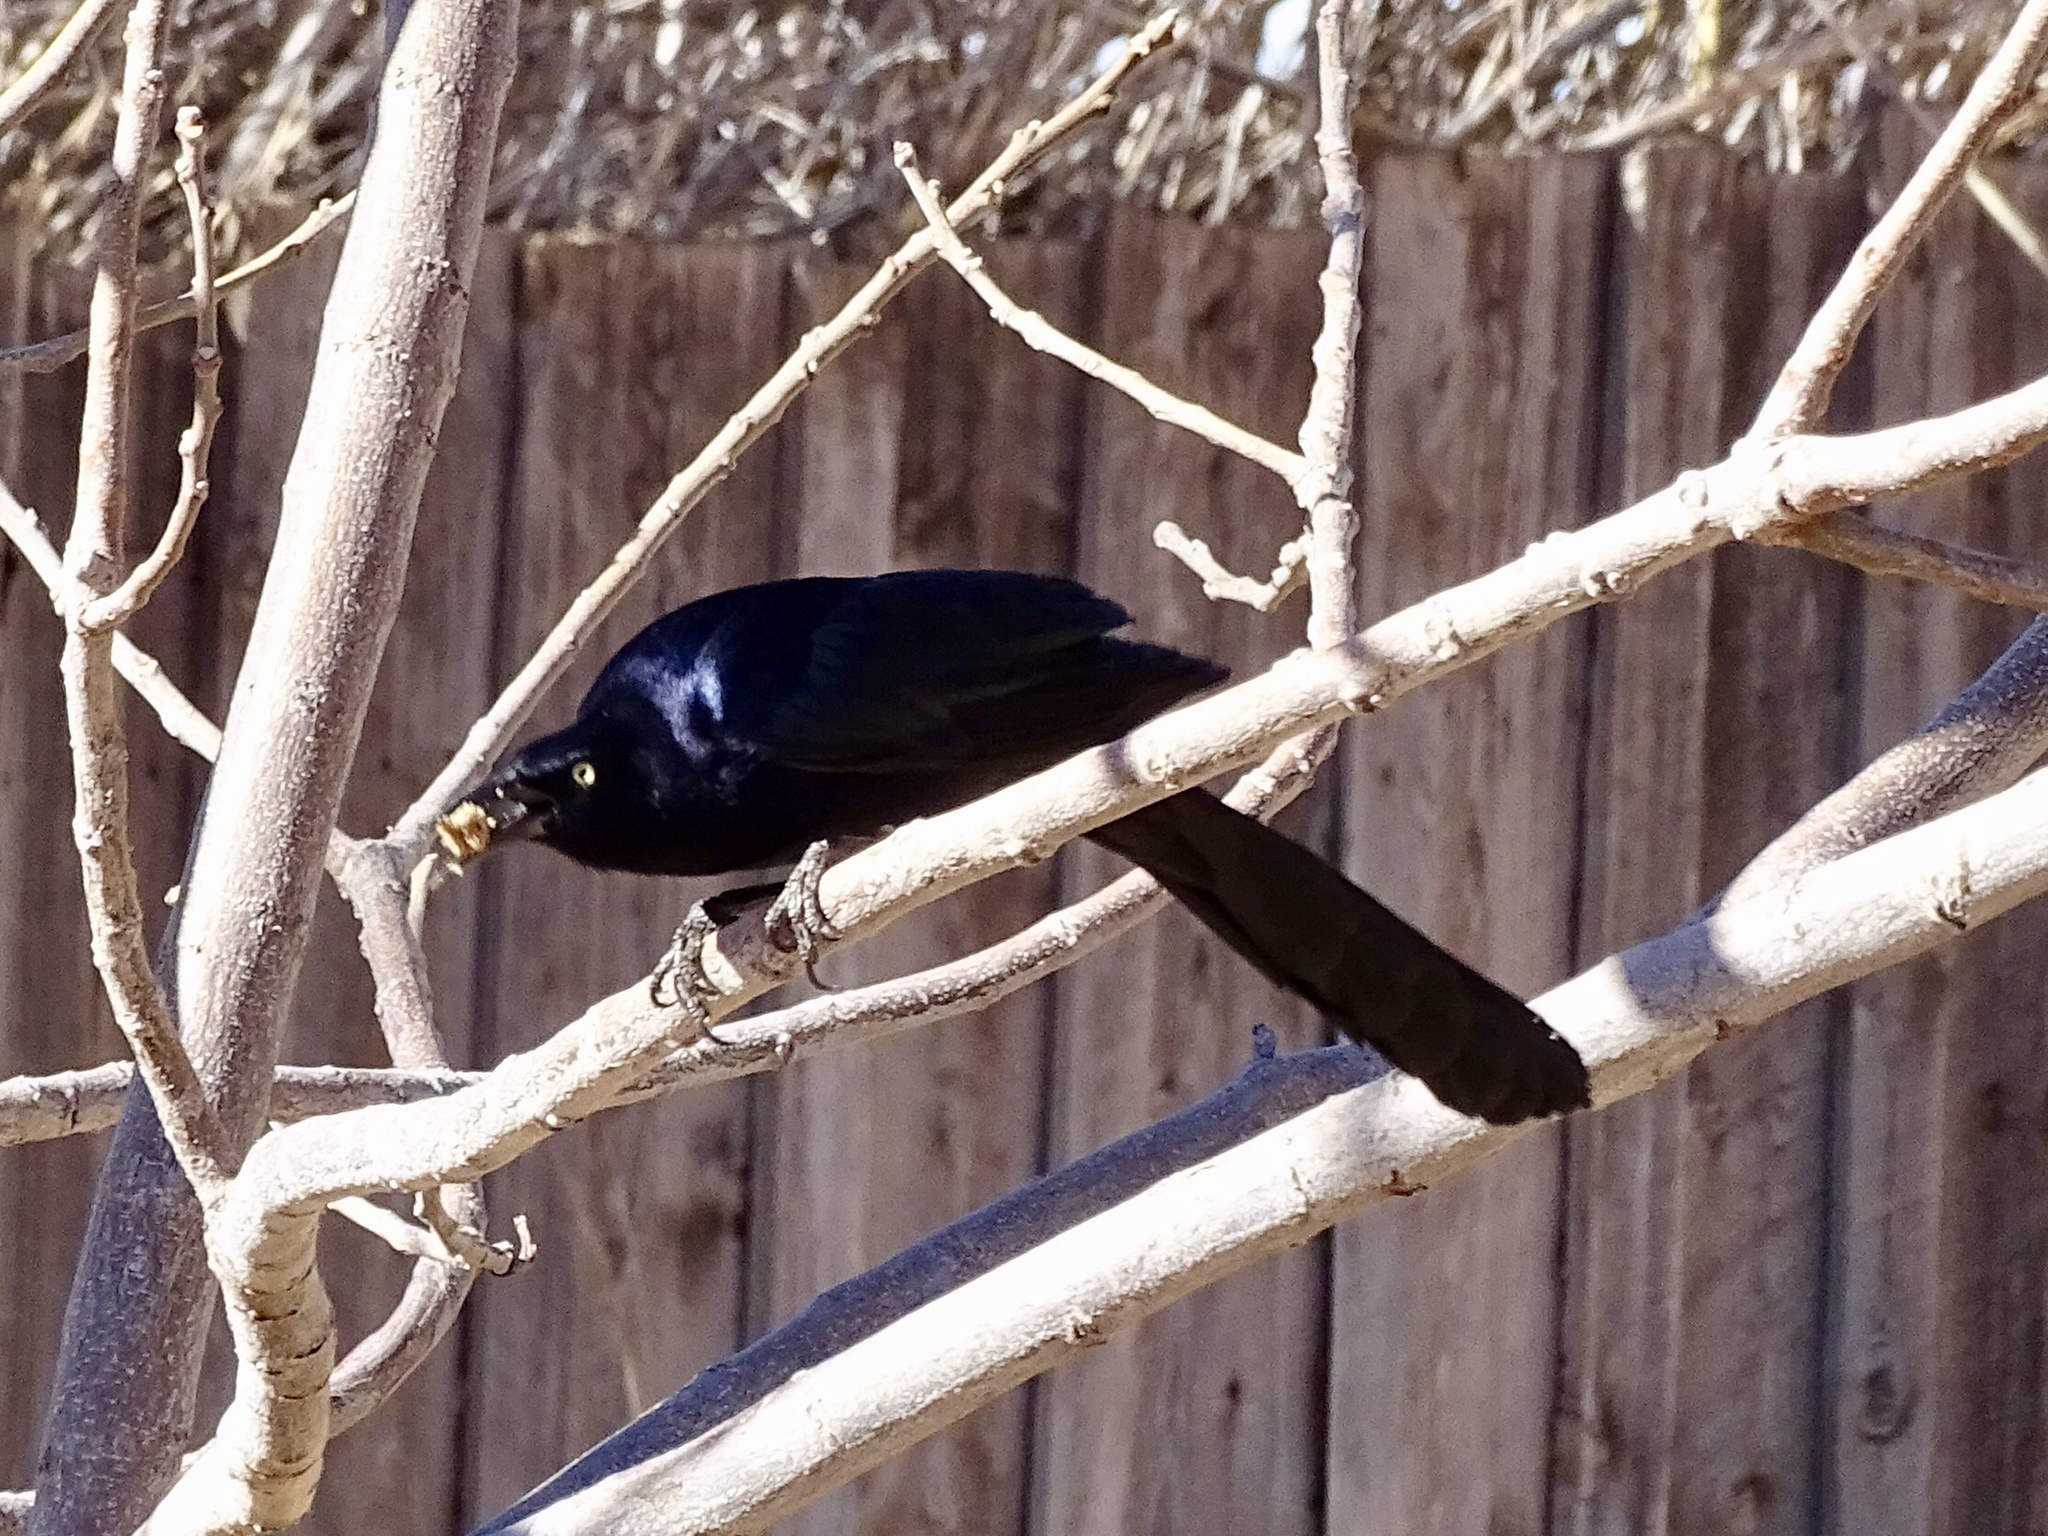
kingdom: Animalia
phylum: Chordata
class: Aves
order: Passeriformes
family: Icteridae
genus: Quiscalus
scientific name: Quiscalus mexicanus
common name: Great-tailed grackle
